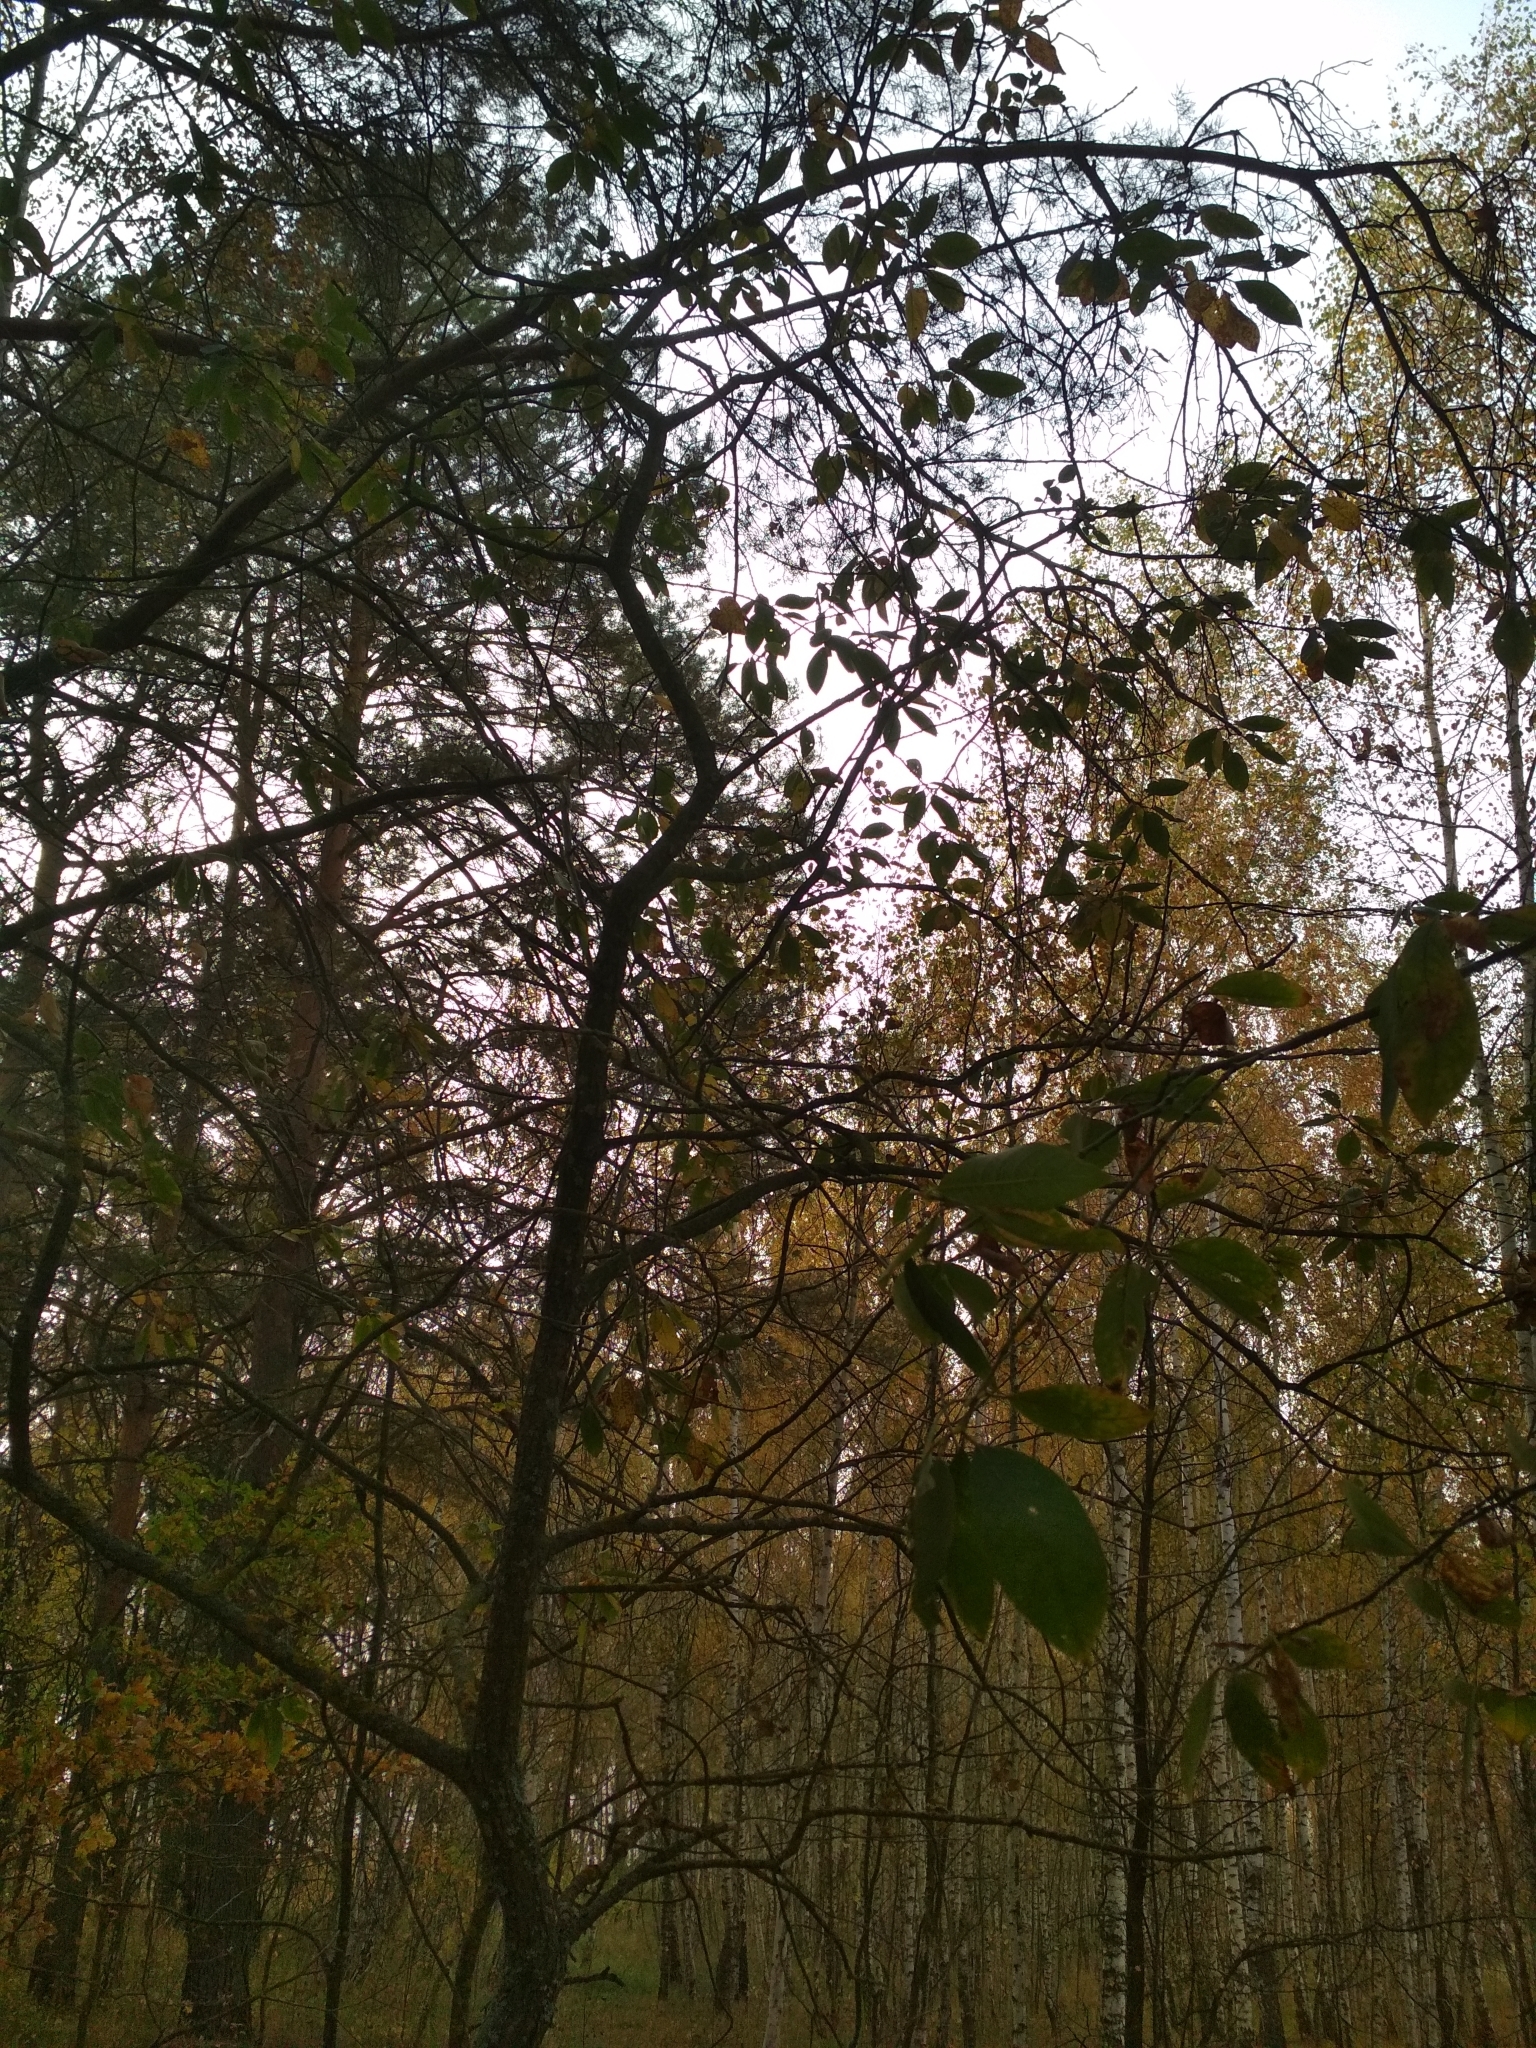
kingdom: Plantae
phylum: Tracheophyta
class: Magnoliopsida
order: Malpighiales
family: Salicaceae
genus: Salix
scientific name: Salix caprea
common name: Goat willow
